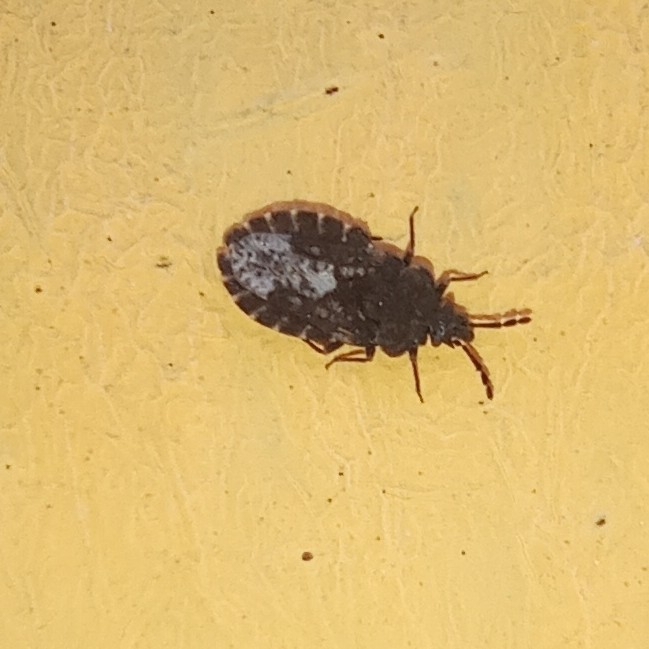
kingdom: Animalia
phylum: Arthropoda
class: Insecta
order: Hemiptera
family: Aradidae
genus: Aradus
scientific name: Aradus bimaculatus
